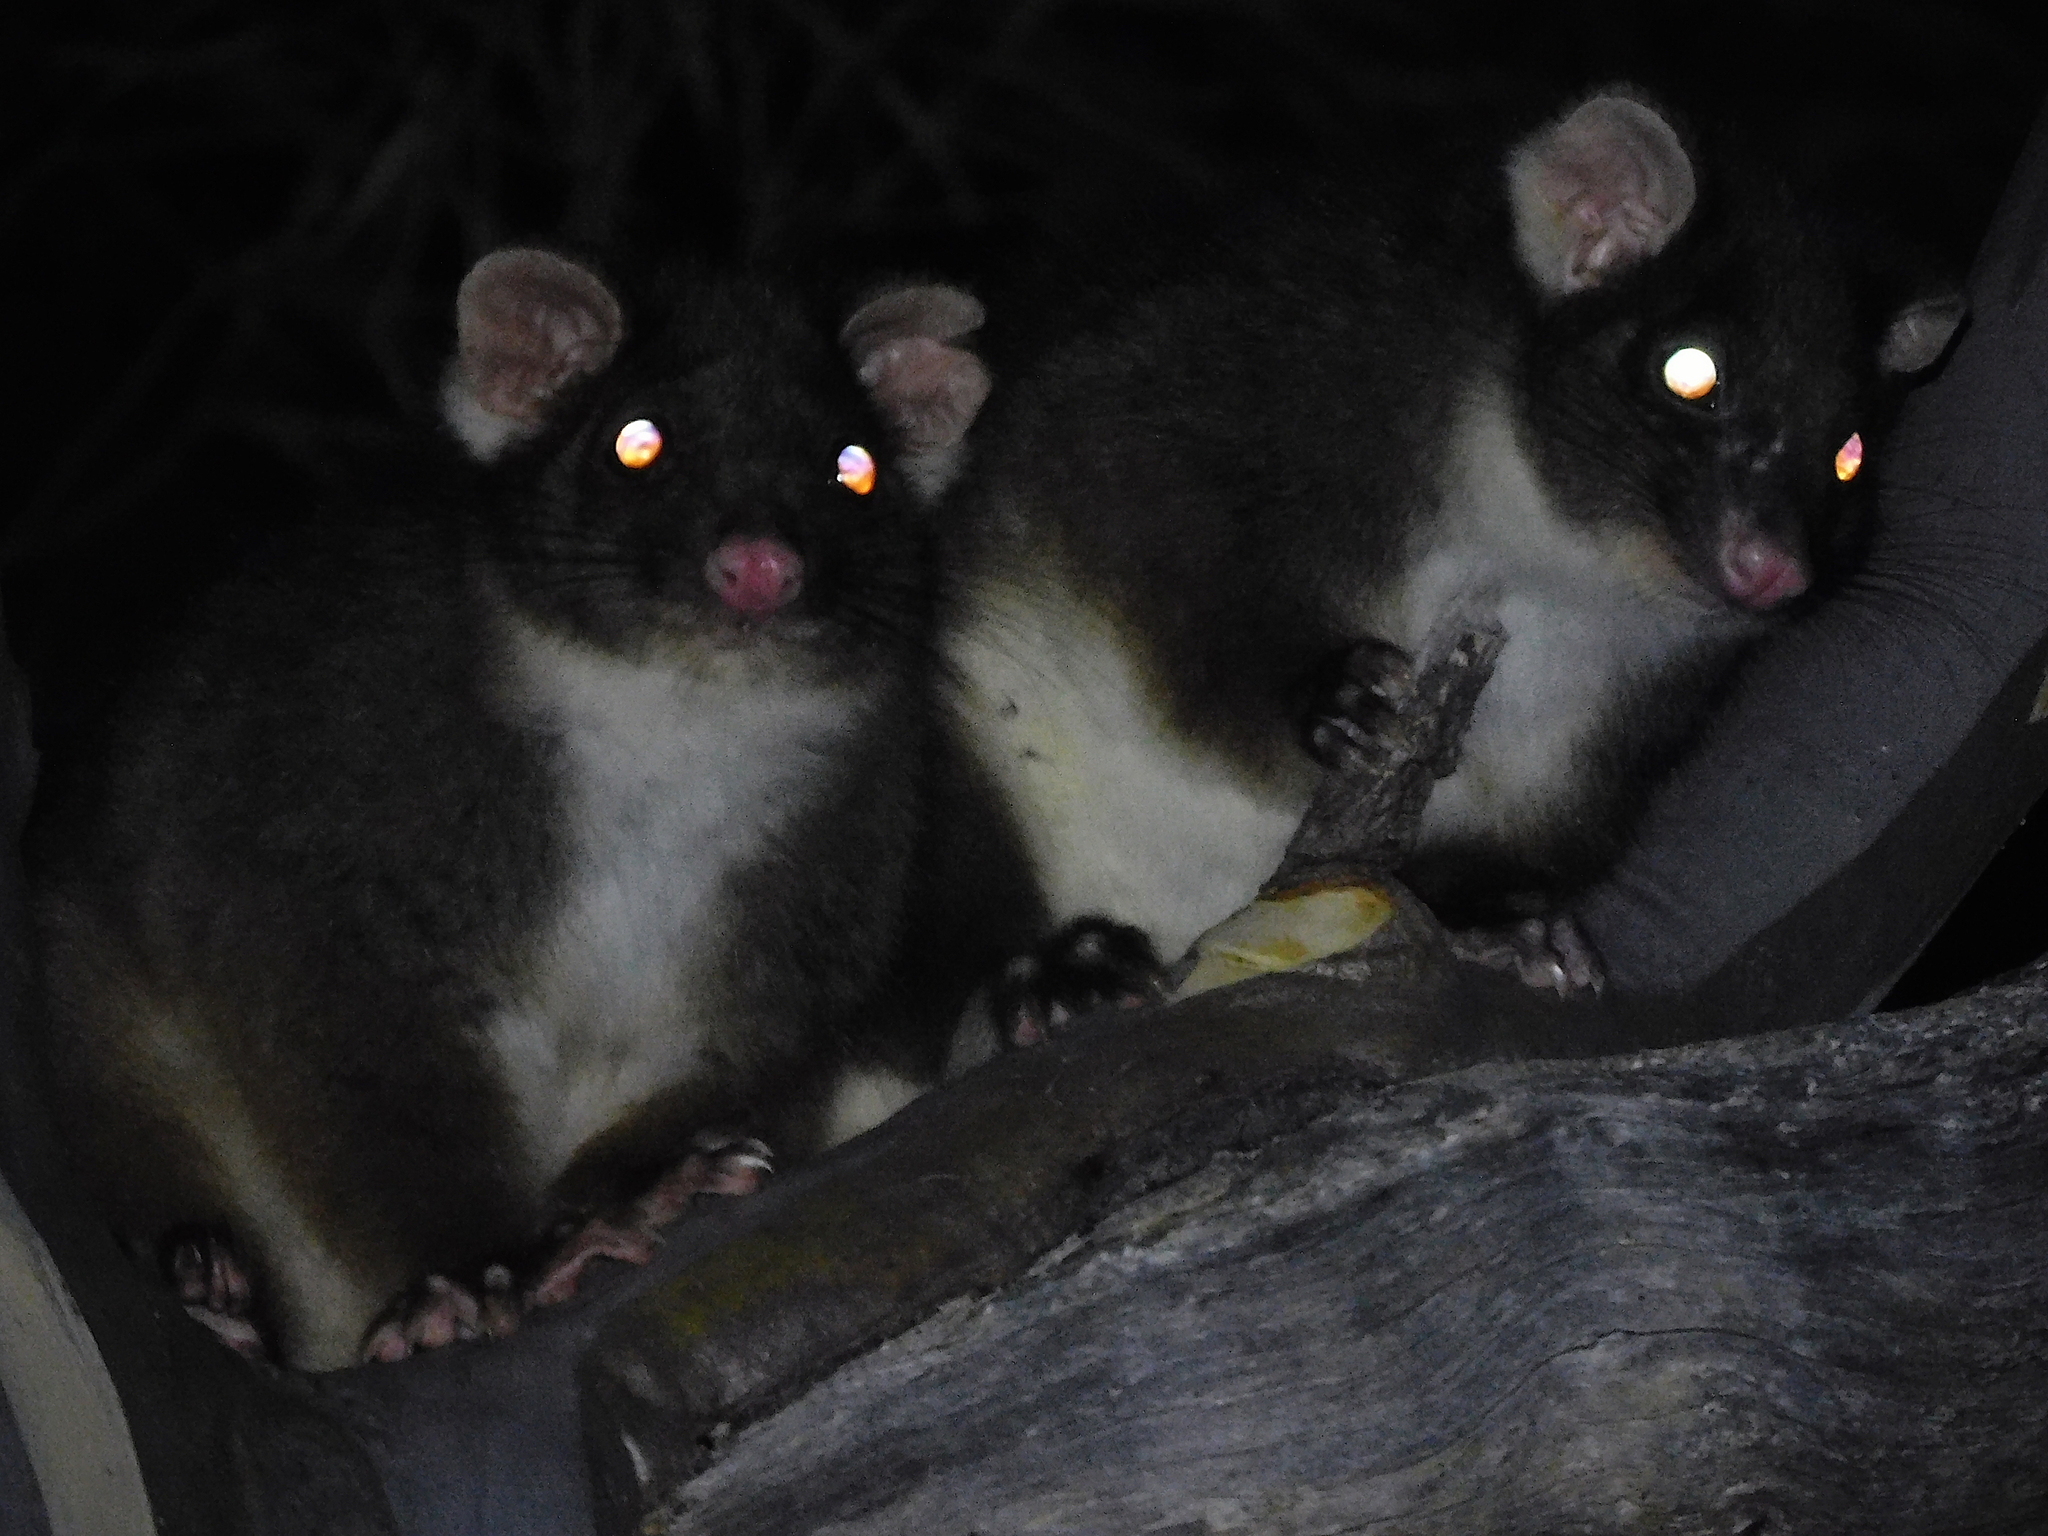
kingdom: Animalia
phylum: Chordata
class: Mammalia
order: Diprotodontia
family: Pseudocheiridae
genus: Pseudocheirus
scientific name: Pseudocheirus peregrinus
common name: Common ringtail possum
